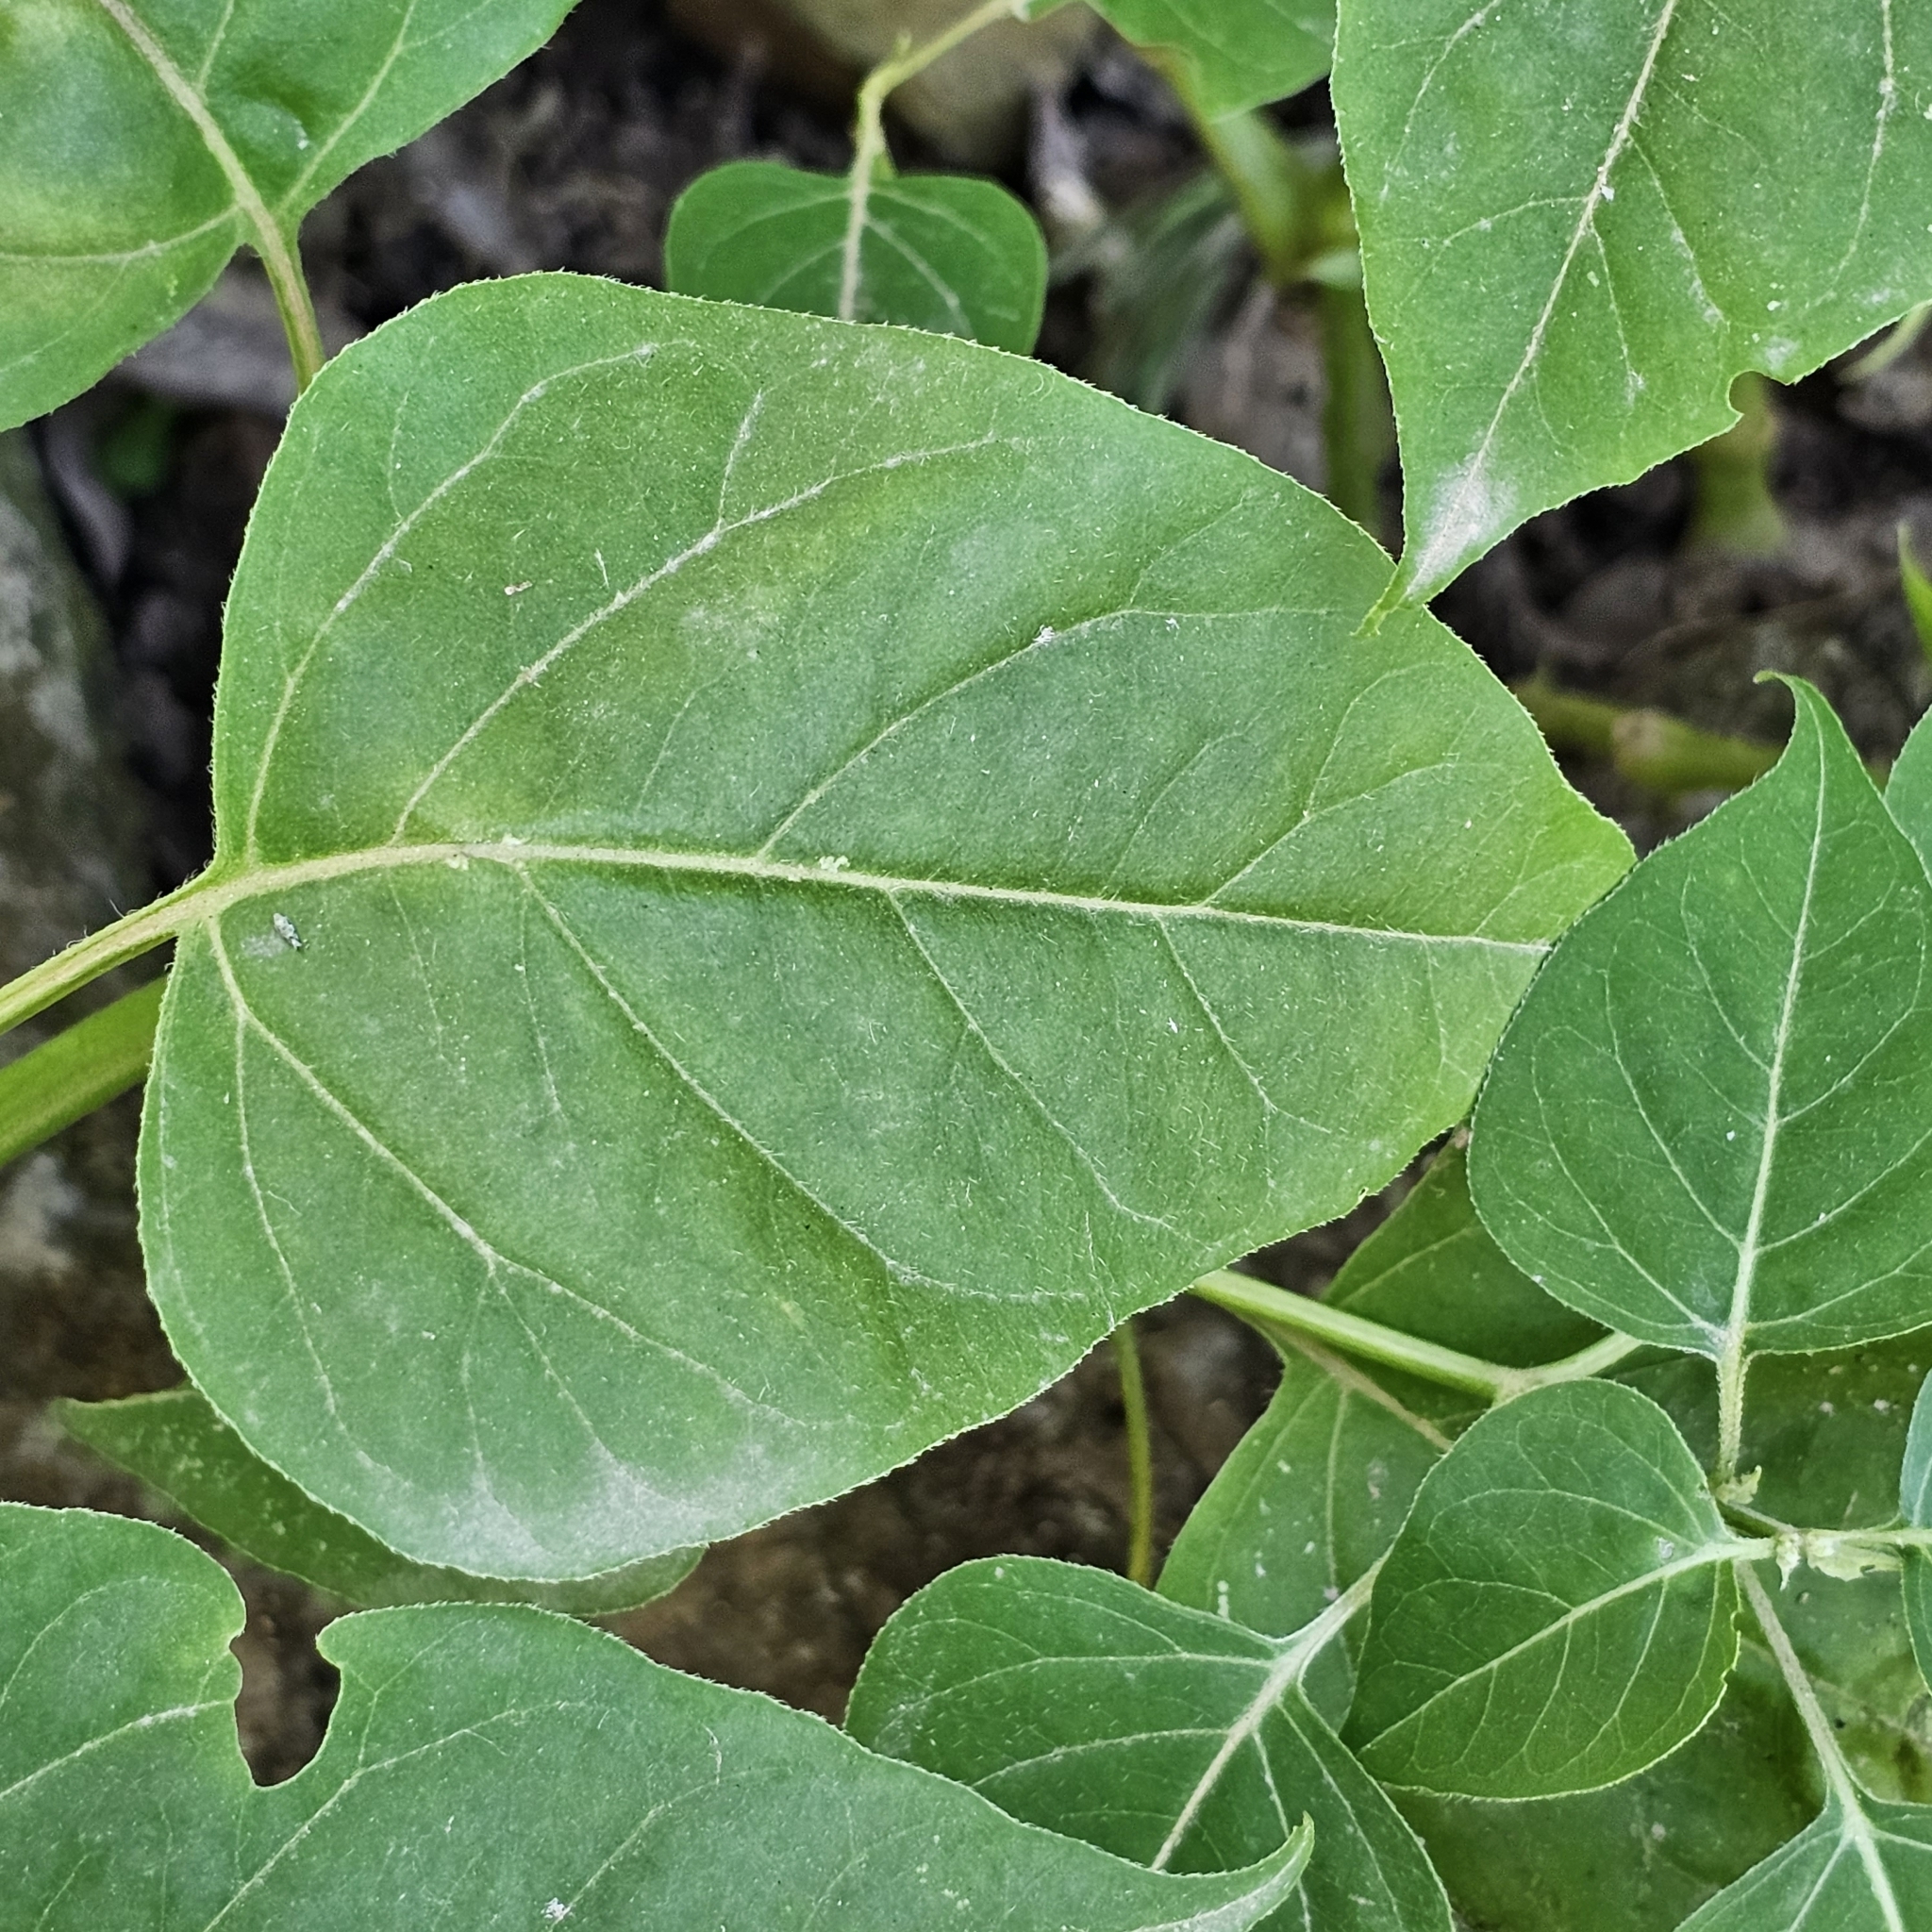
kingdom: Plantae
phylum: Tracheophyta
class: Magnoliopsida
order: Caryophyllales
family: Nyctaginaceae
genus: Mirabilis
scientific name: Mirabilis jalapa
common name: Marvel-of-peru
